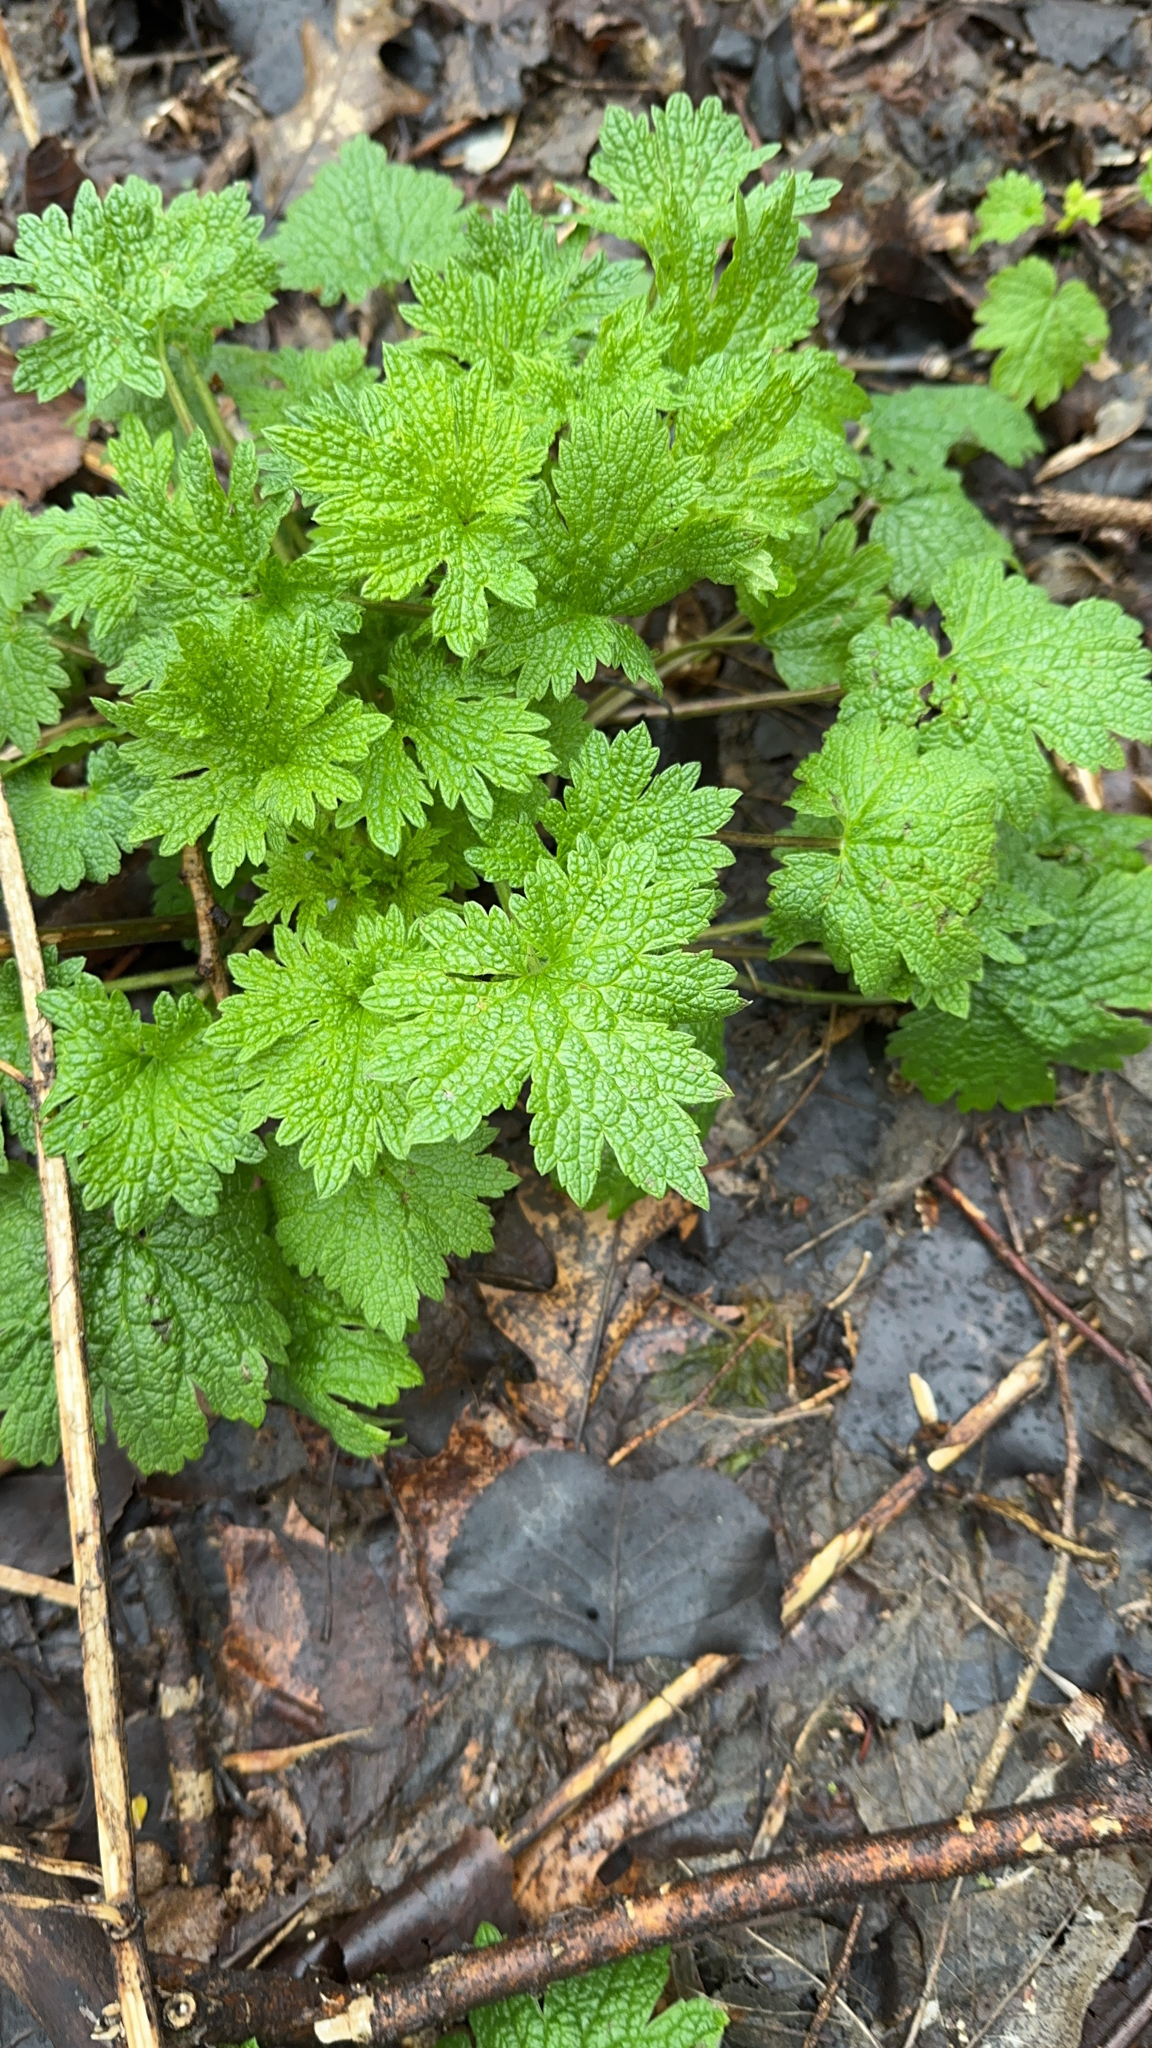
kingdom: Plantae
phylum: Tracheophyta
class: Magnoliopsida
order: Lamiales
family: Lamiaceae
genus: Leonurus
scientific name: Leonurus cardiaca
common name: Motherwort
